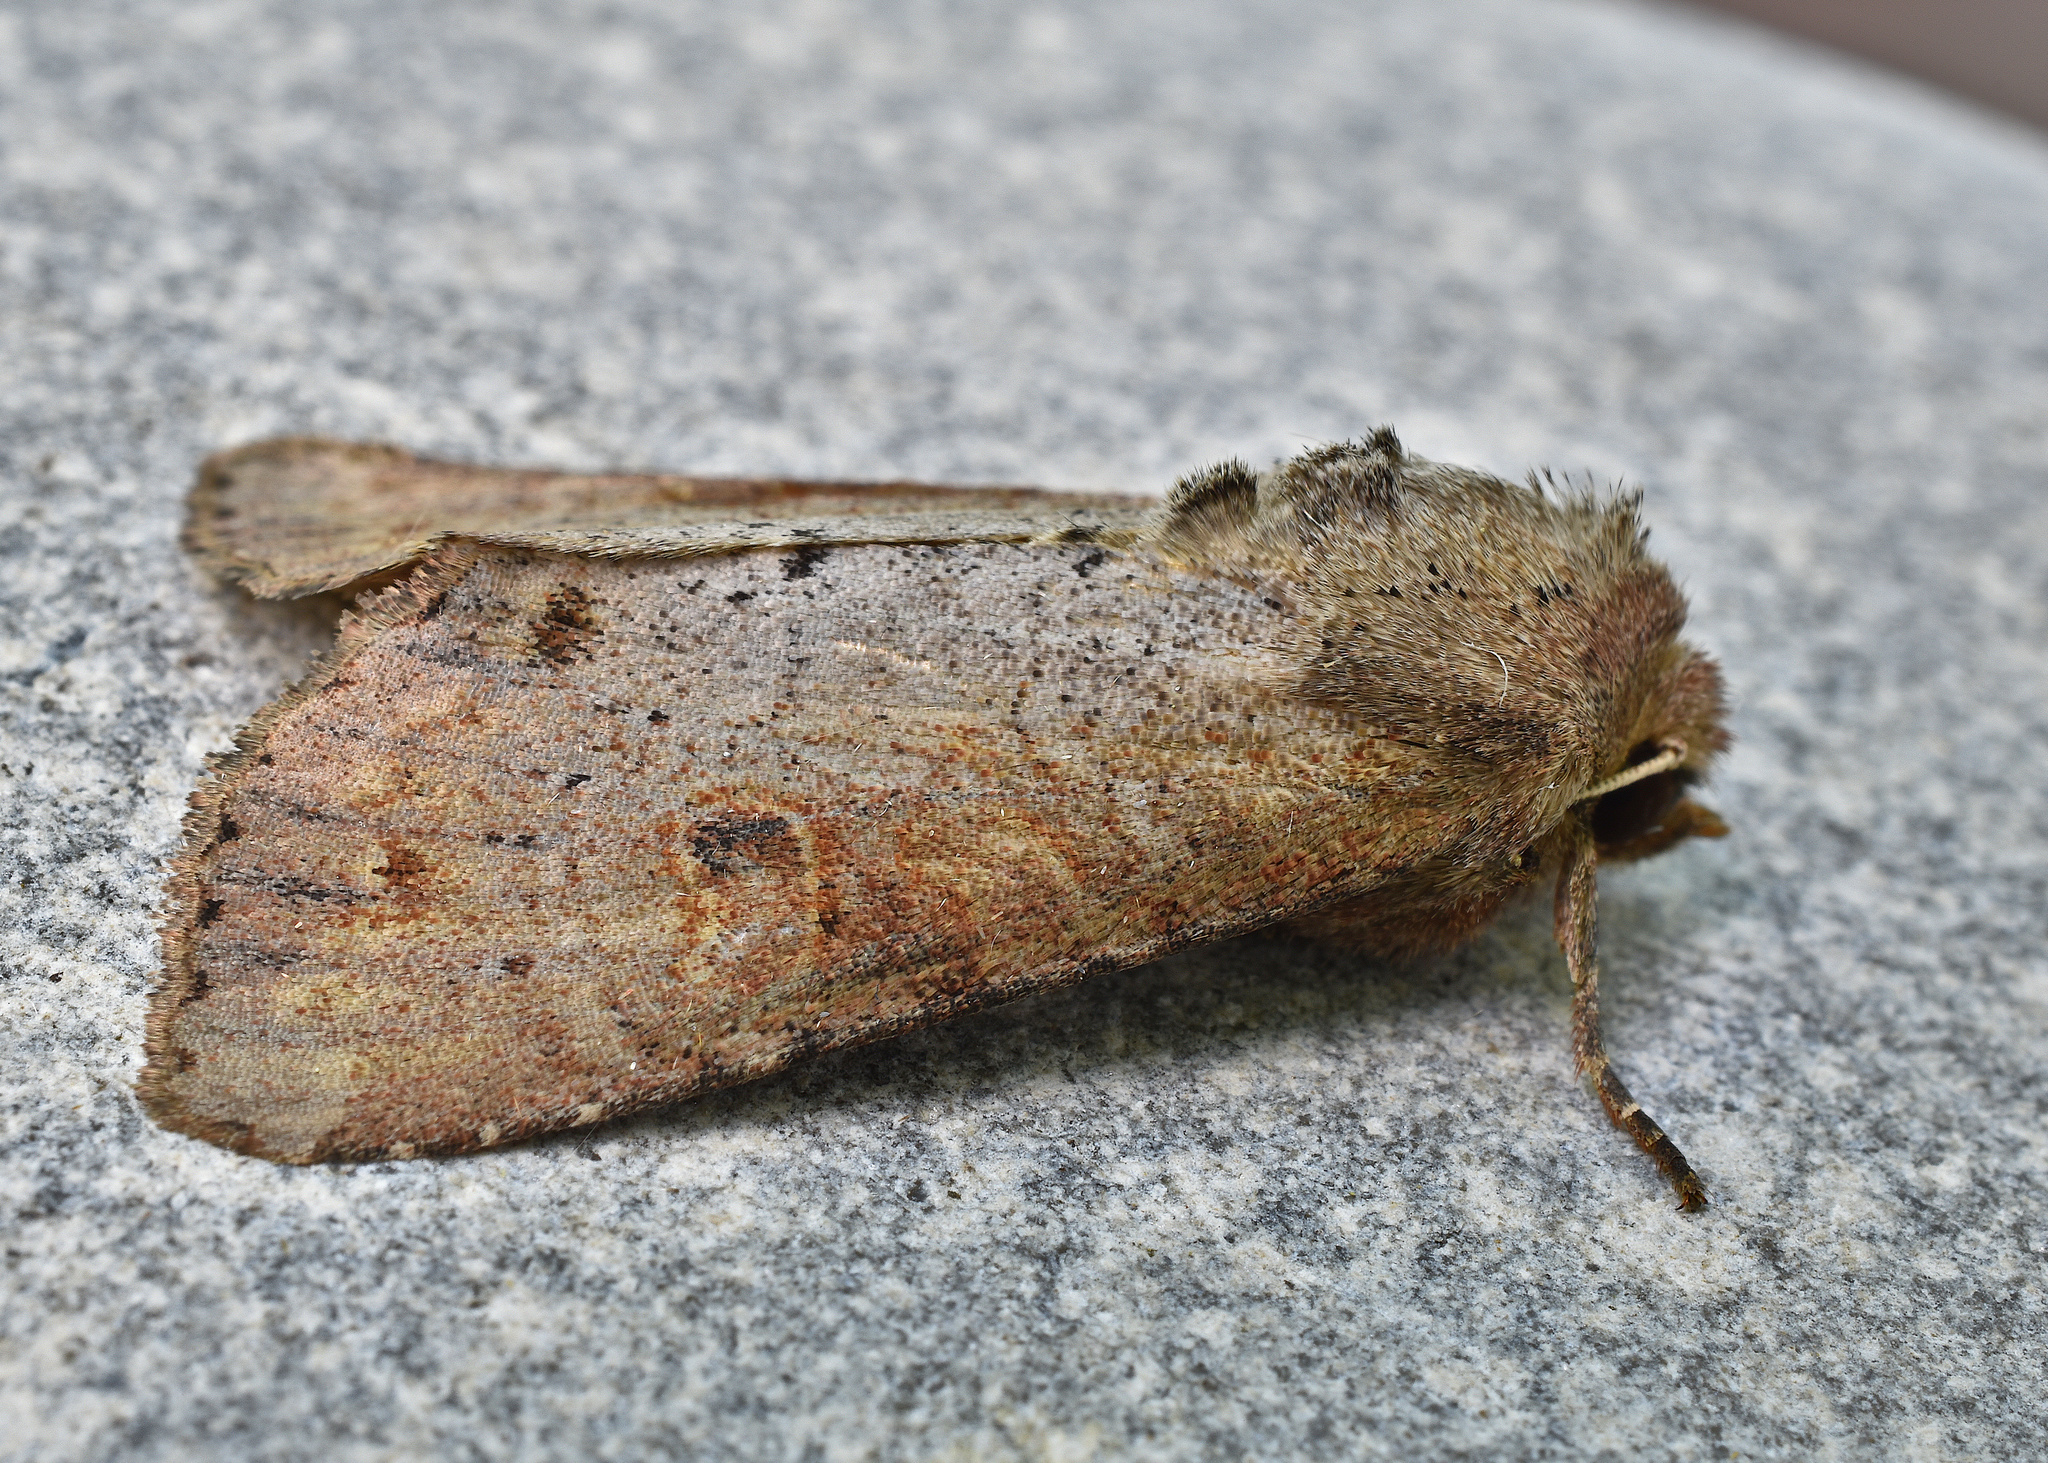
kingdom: Animalia
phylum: Arthropoda
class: Insecta
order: Lepidoptera
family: Noctuidae
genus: Apamea
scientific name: Apamea alia
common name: Fox apamea
